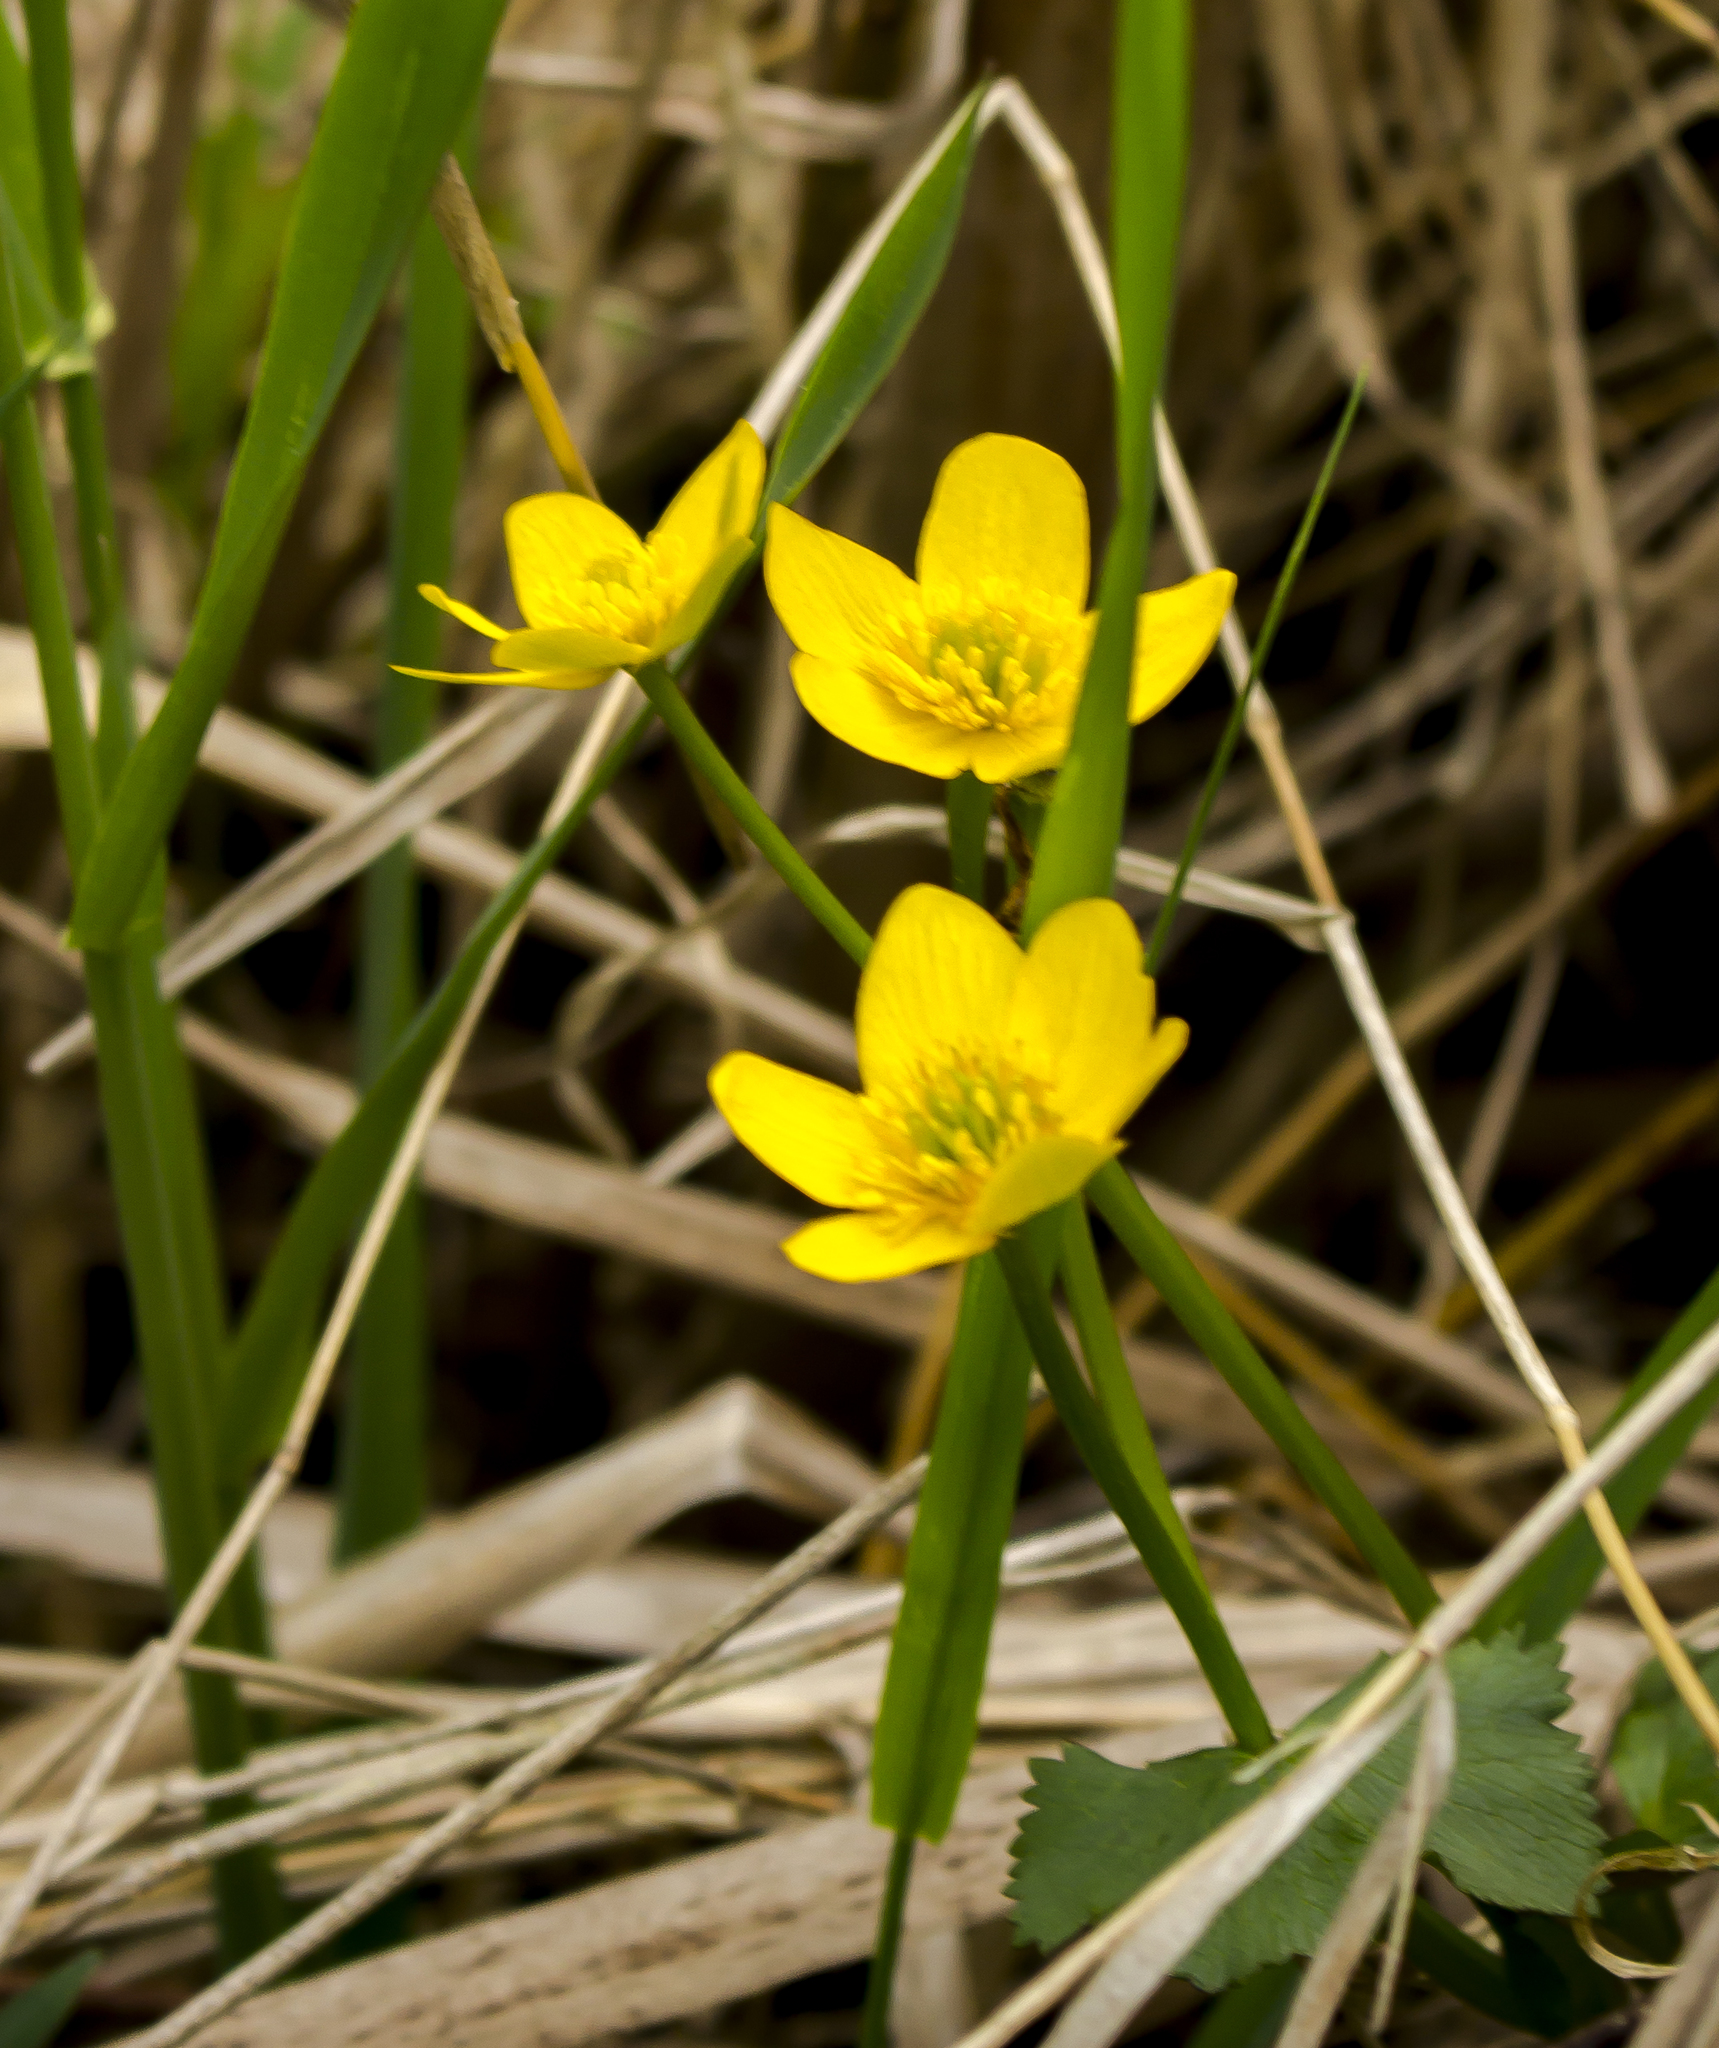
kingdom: Plantae
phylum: Tracheophyta
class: Magnoliopsida
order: Ranunculales
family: Ranunculaceae
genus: Caltha
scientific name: Caltha palustris
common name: Marsh marigold
